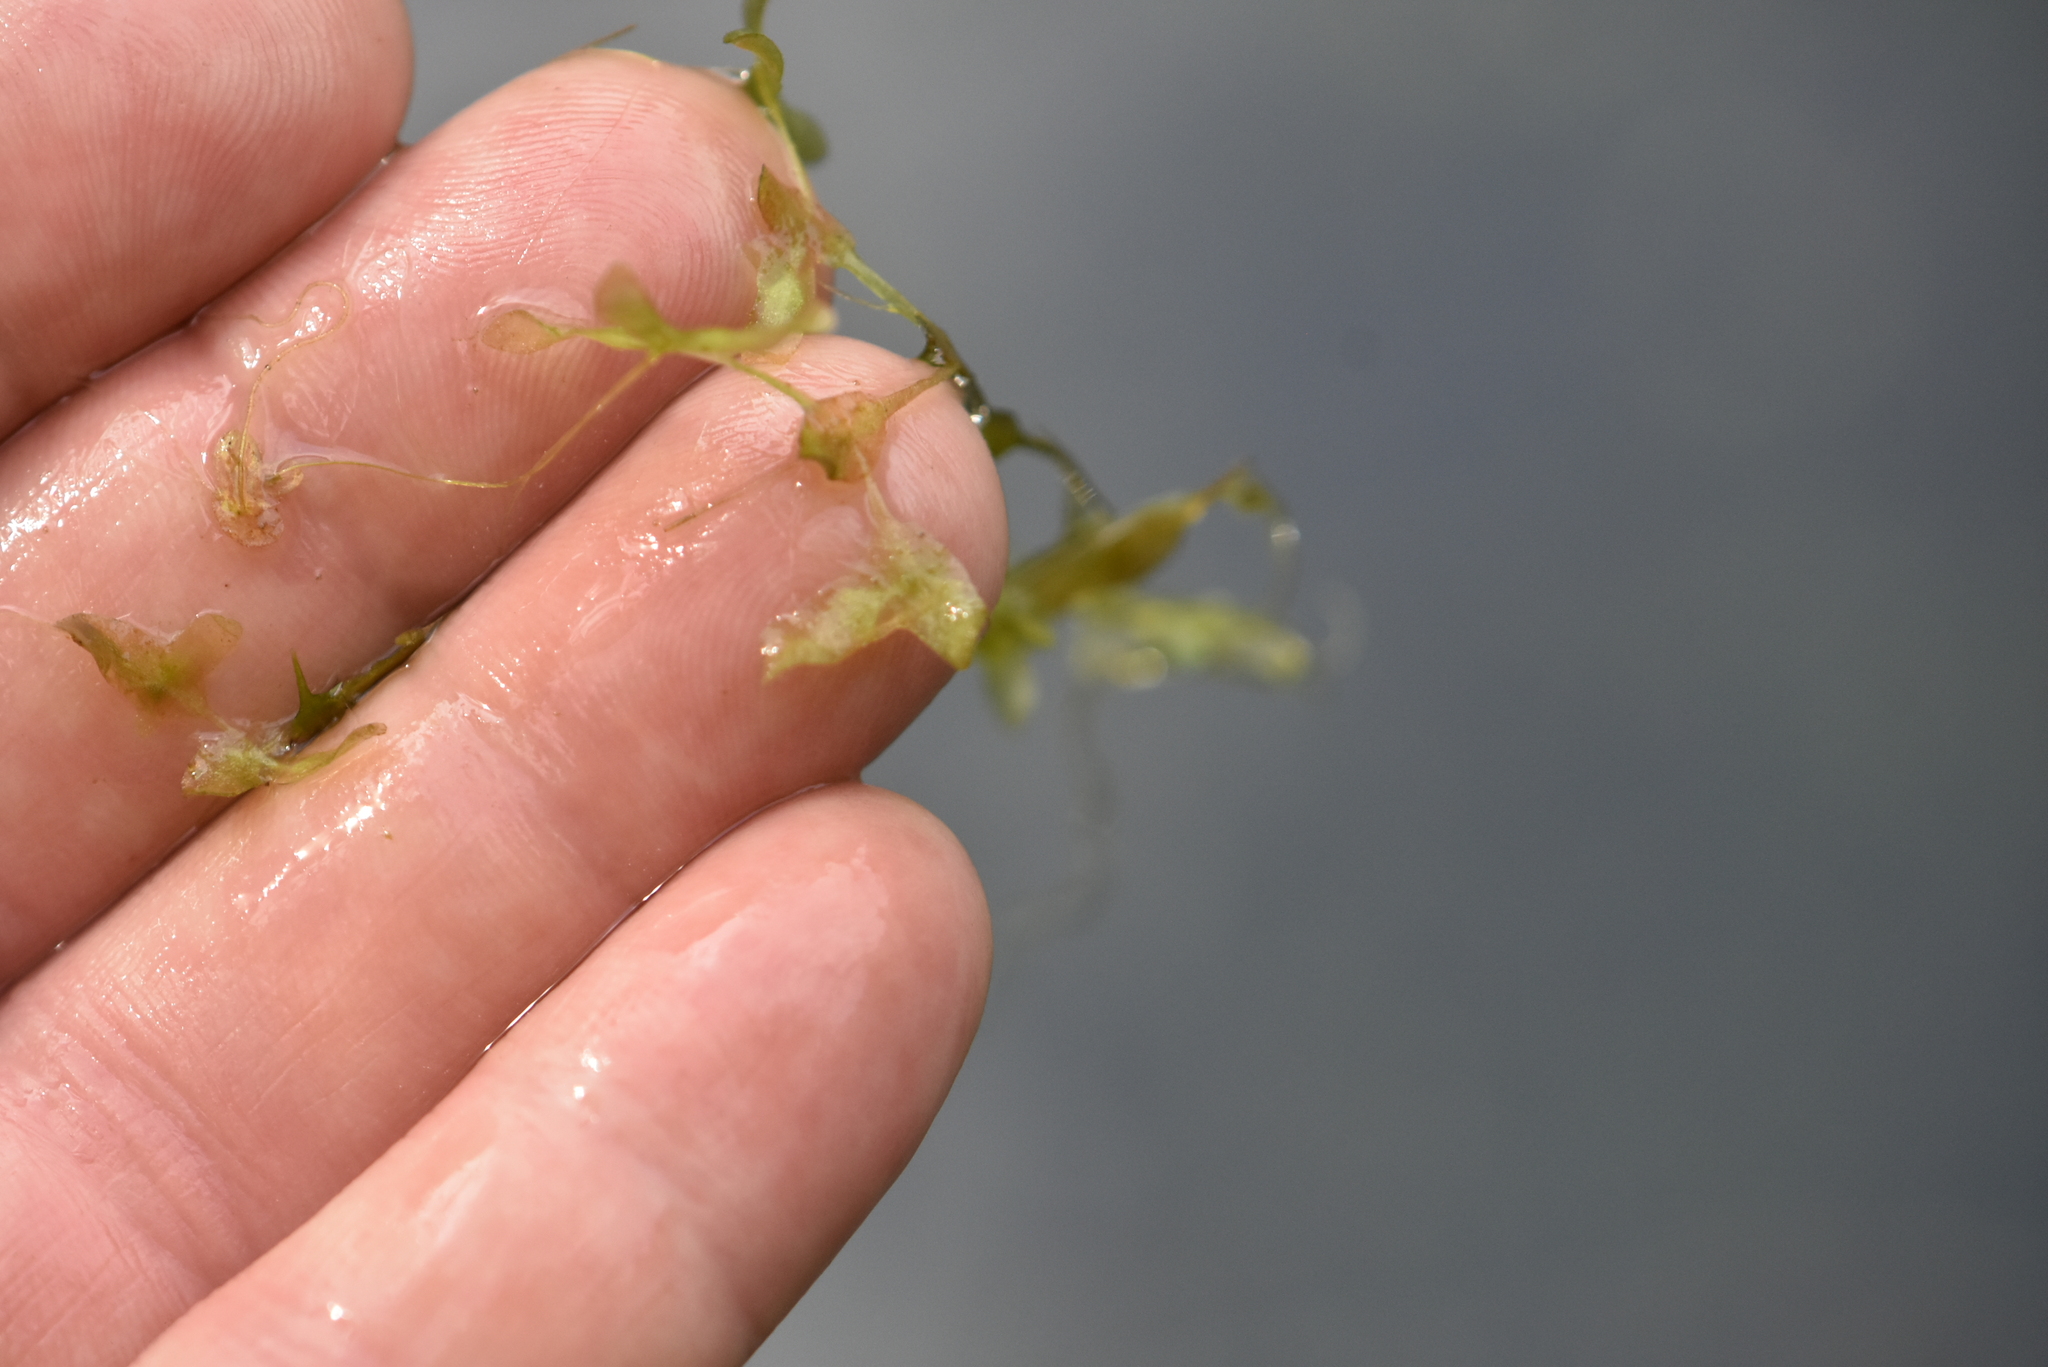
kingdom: Plantae
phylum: Tracheophyta
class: Liliopsida
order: Alismatales
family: Araceae
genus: Lemna
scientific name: Lemna trisulca
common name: Ivy-leaved duckweed
